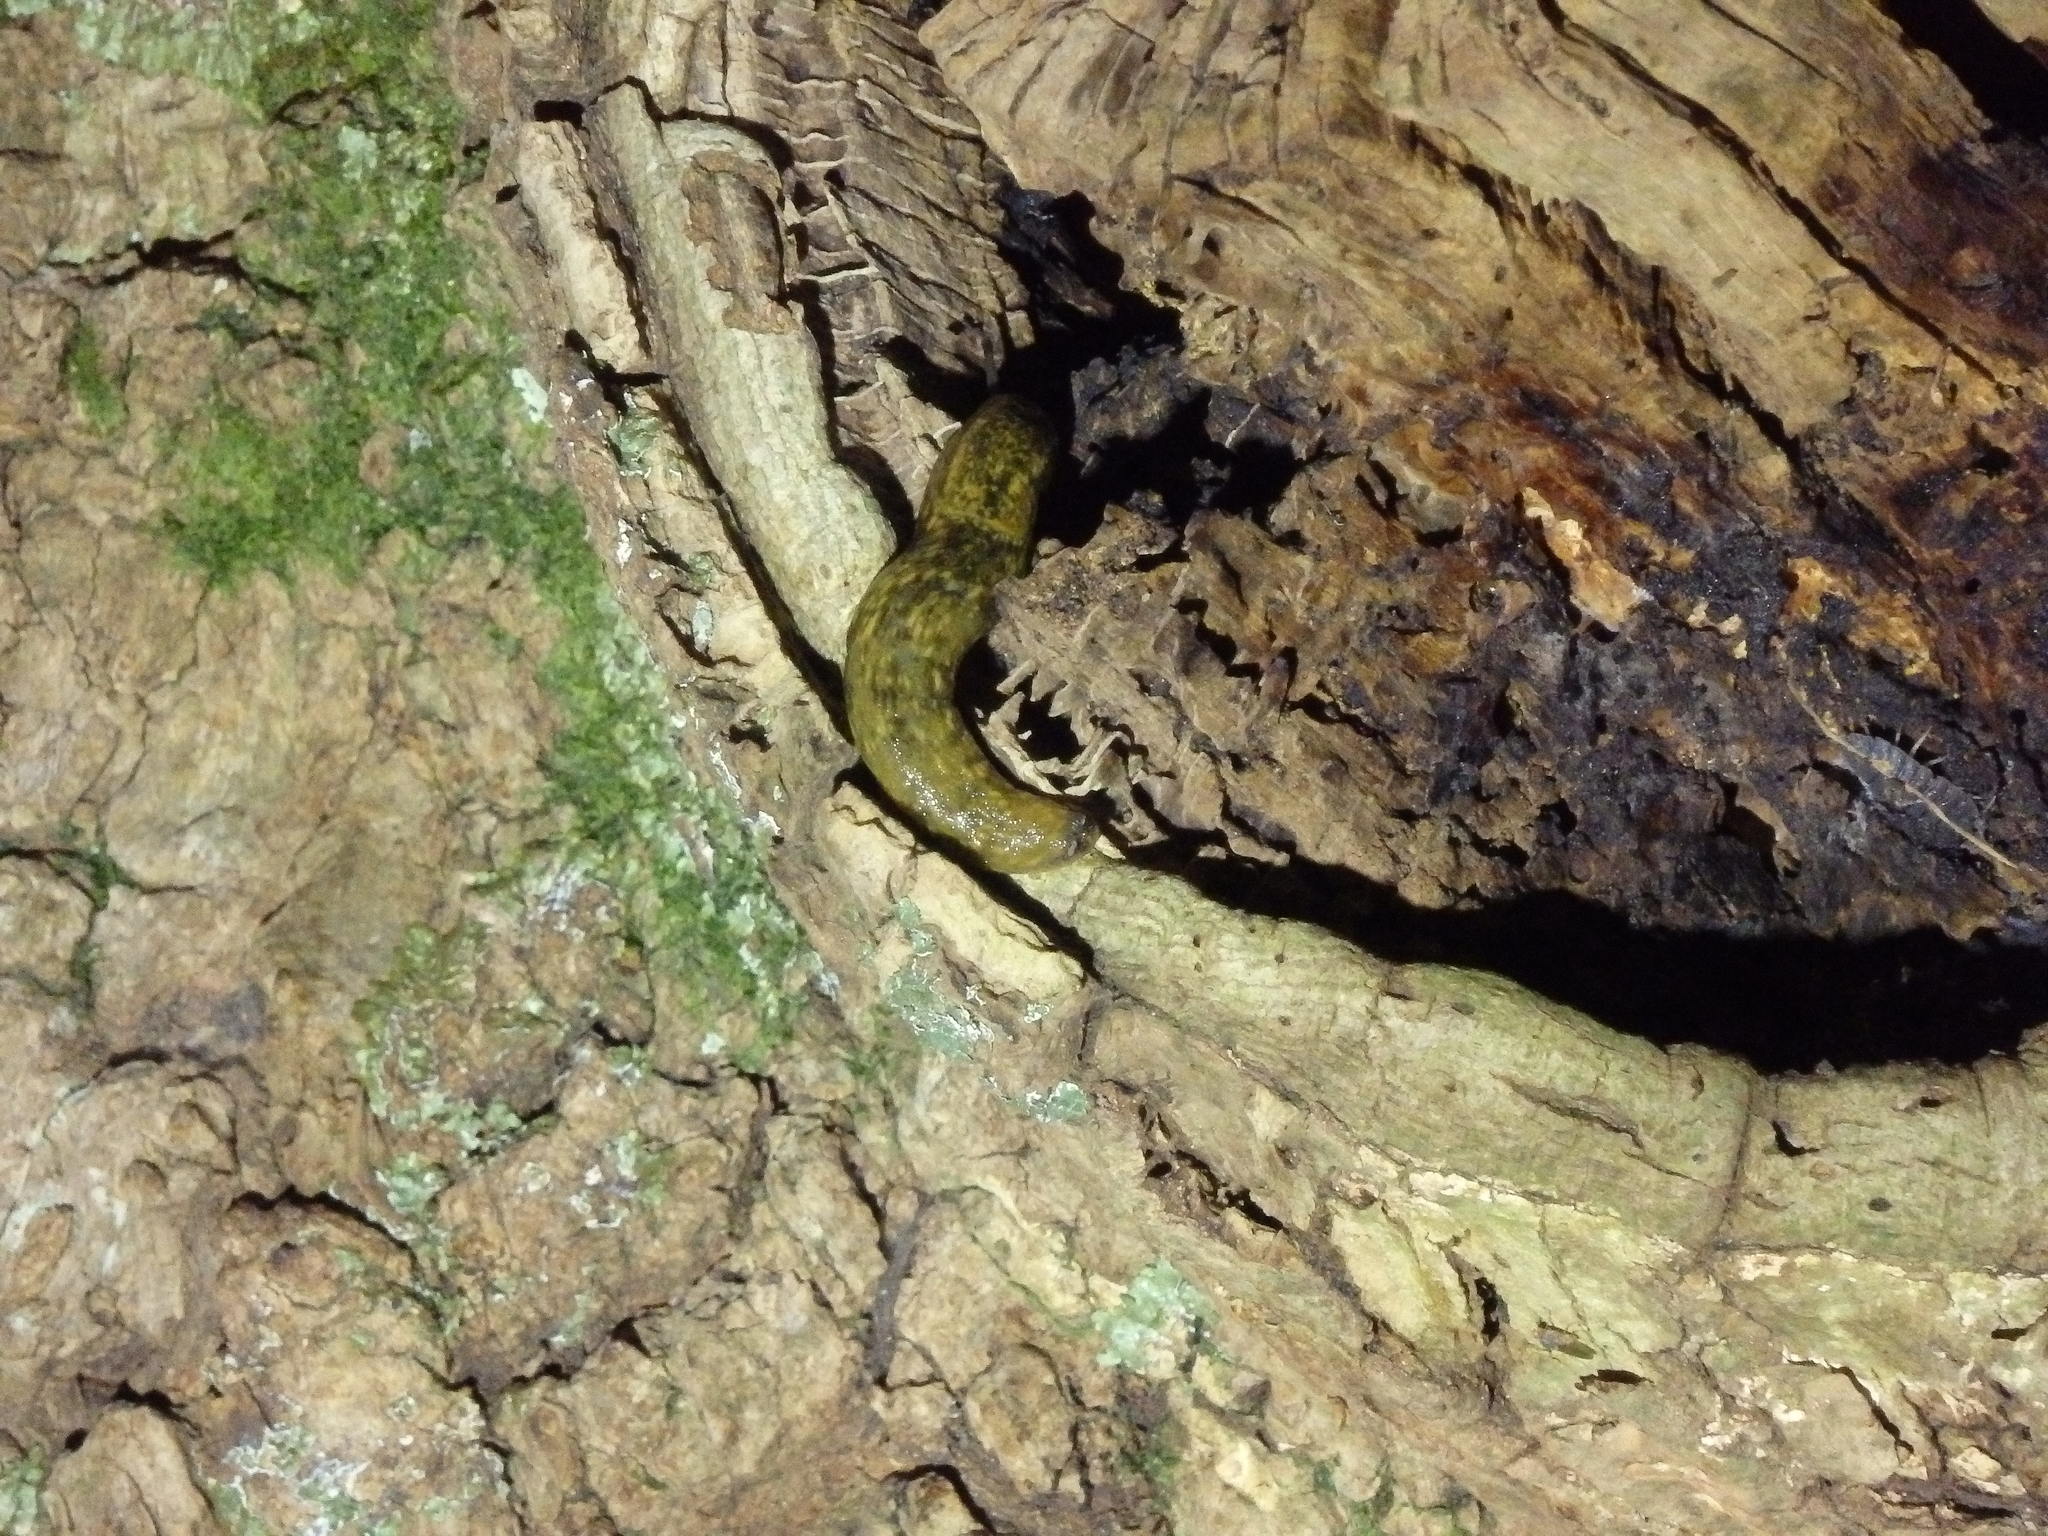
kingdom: Animalia
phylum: Mollusca
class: Gastropoda
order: Stylommatophora
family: Arionidae
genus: Geomalacus
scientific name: Geomalacus maculosus
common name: Kerry slug
